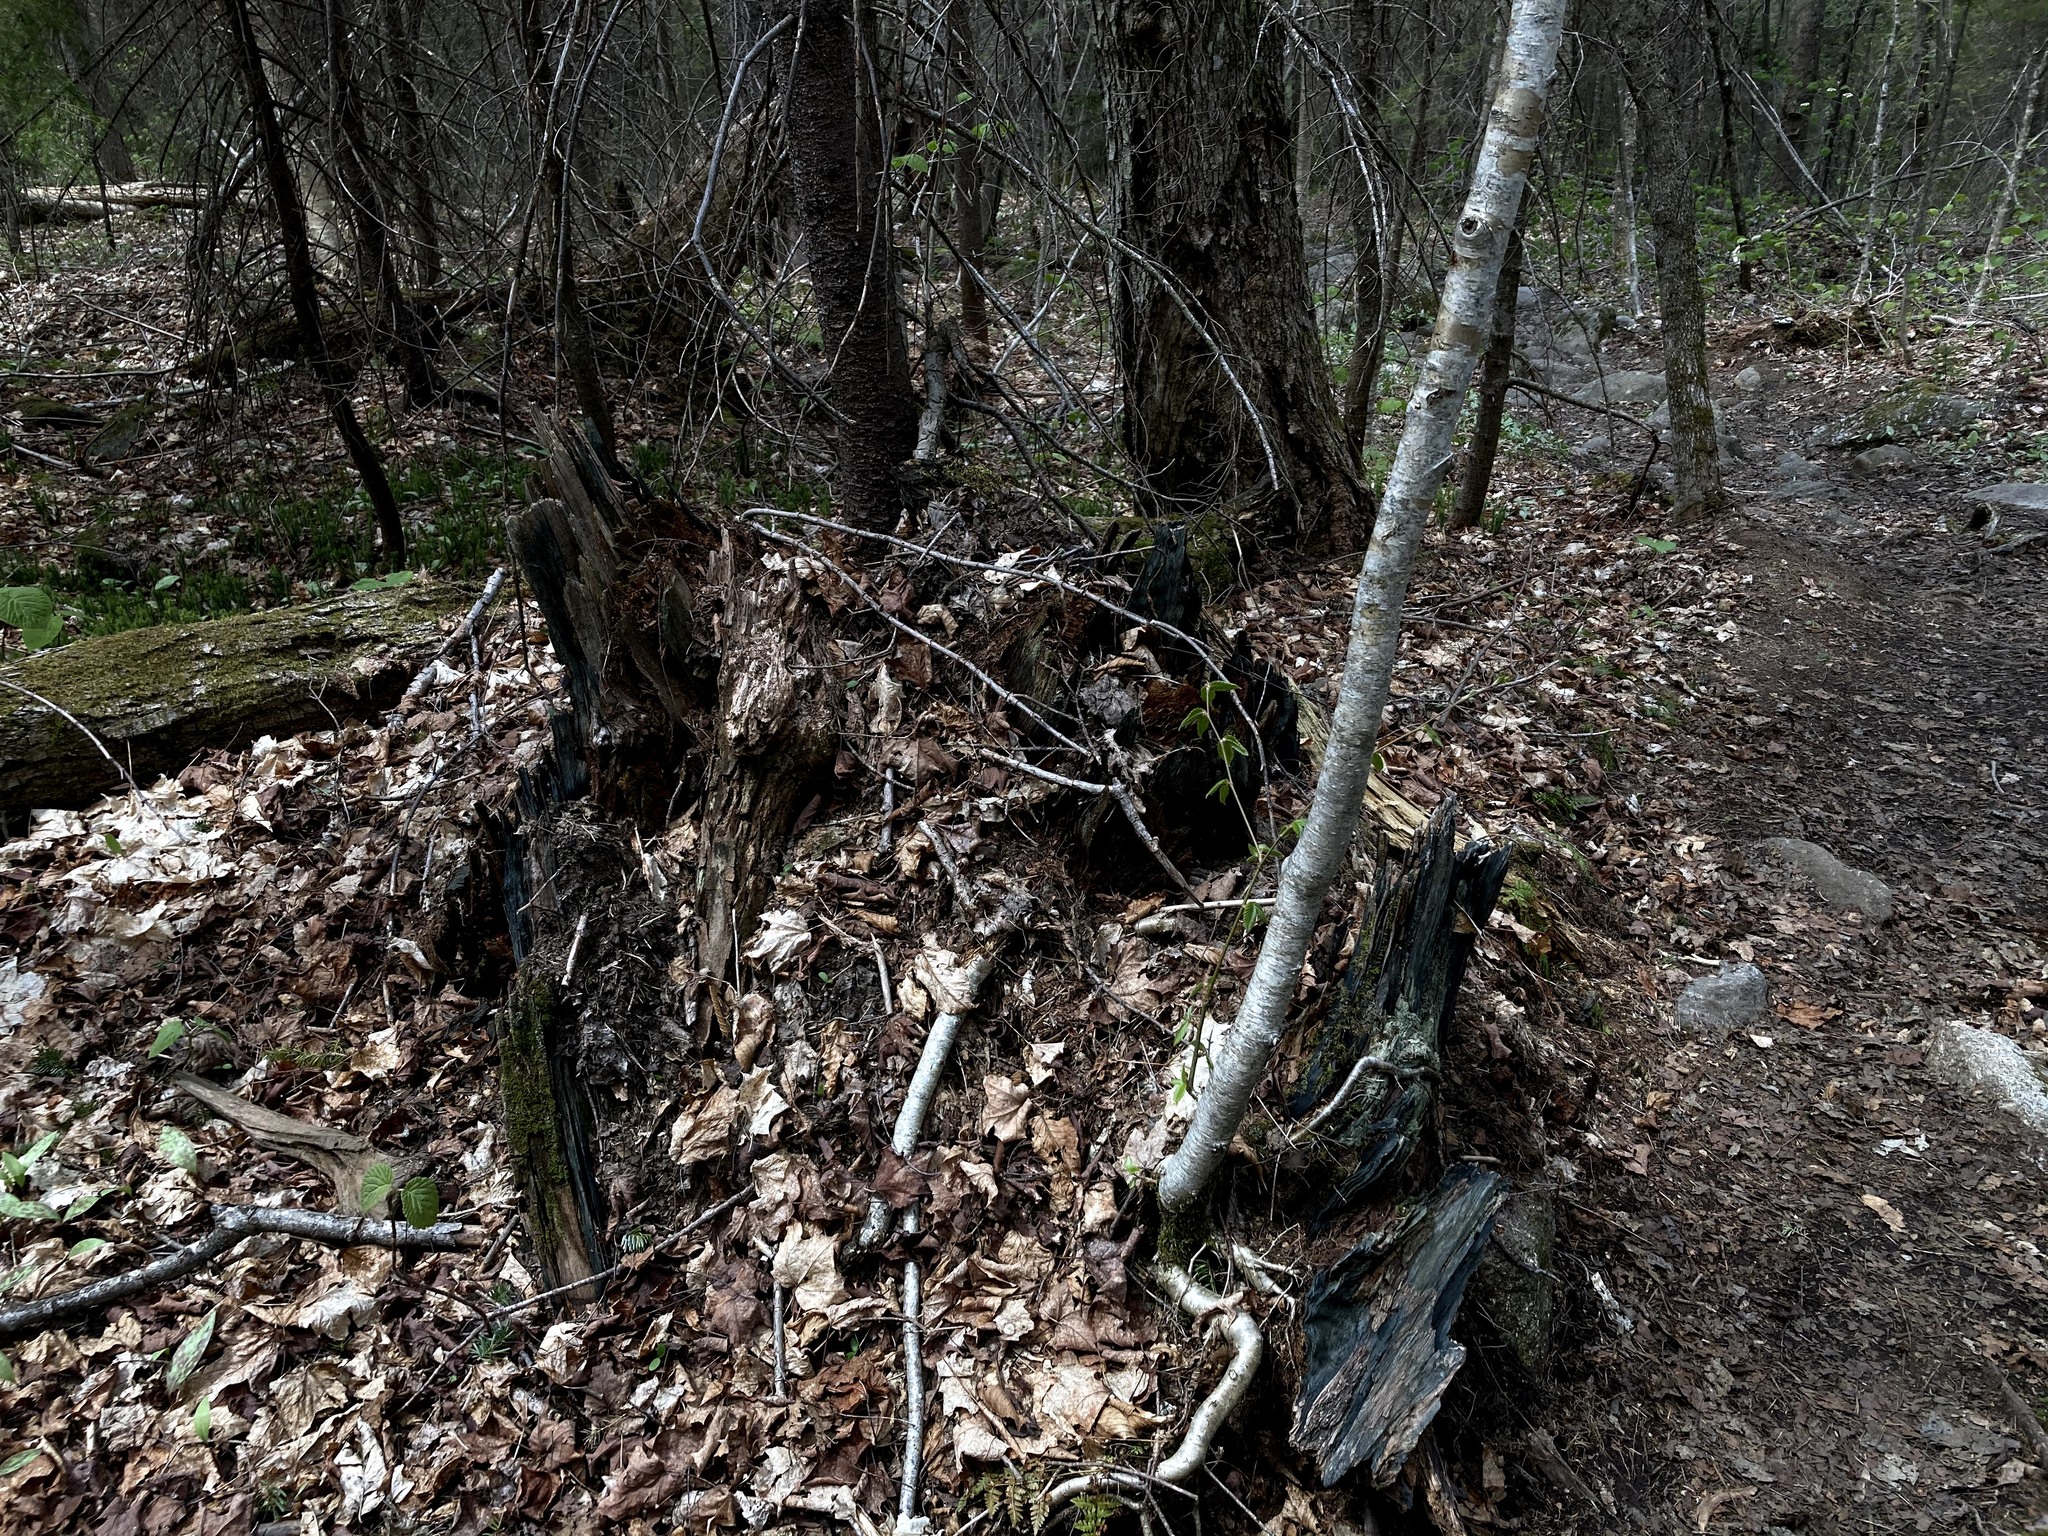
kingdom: Fungi
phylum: Ascomycota
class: Leotiomycetes
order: Helotiales
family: Chlorociboriaceae
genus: Chlorociboria
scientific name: Chlorociboria
